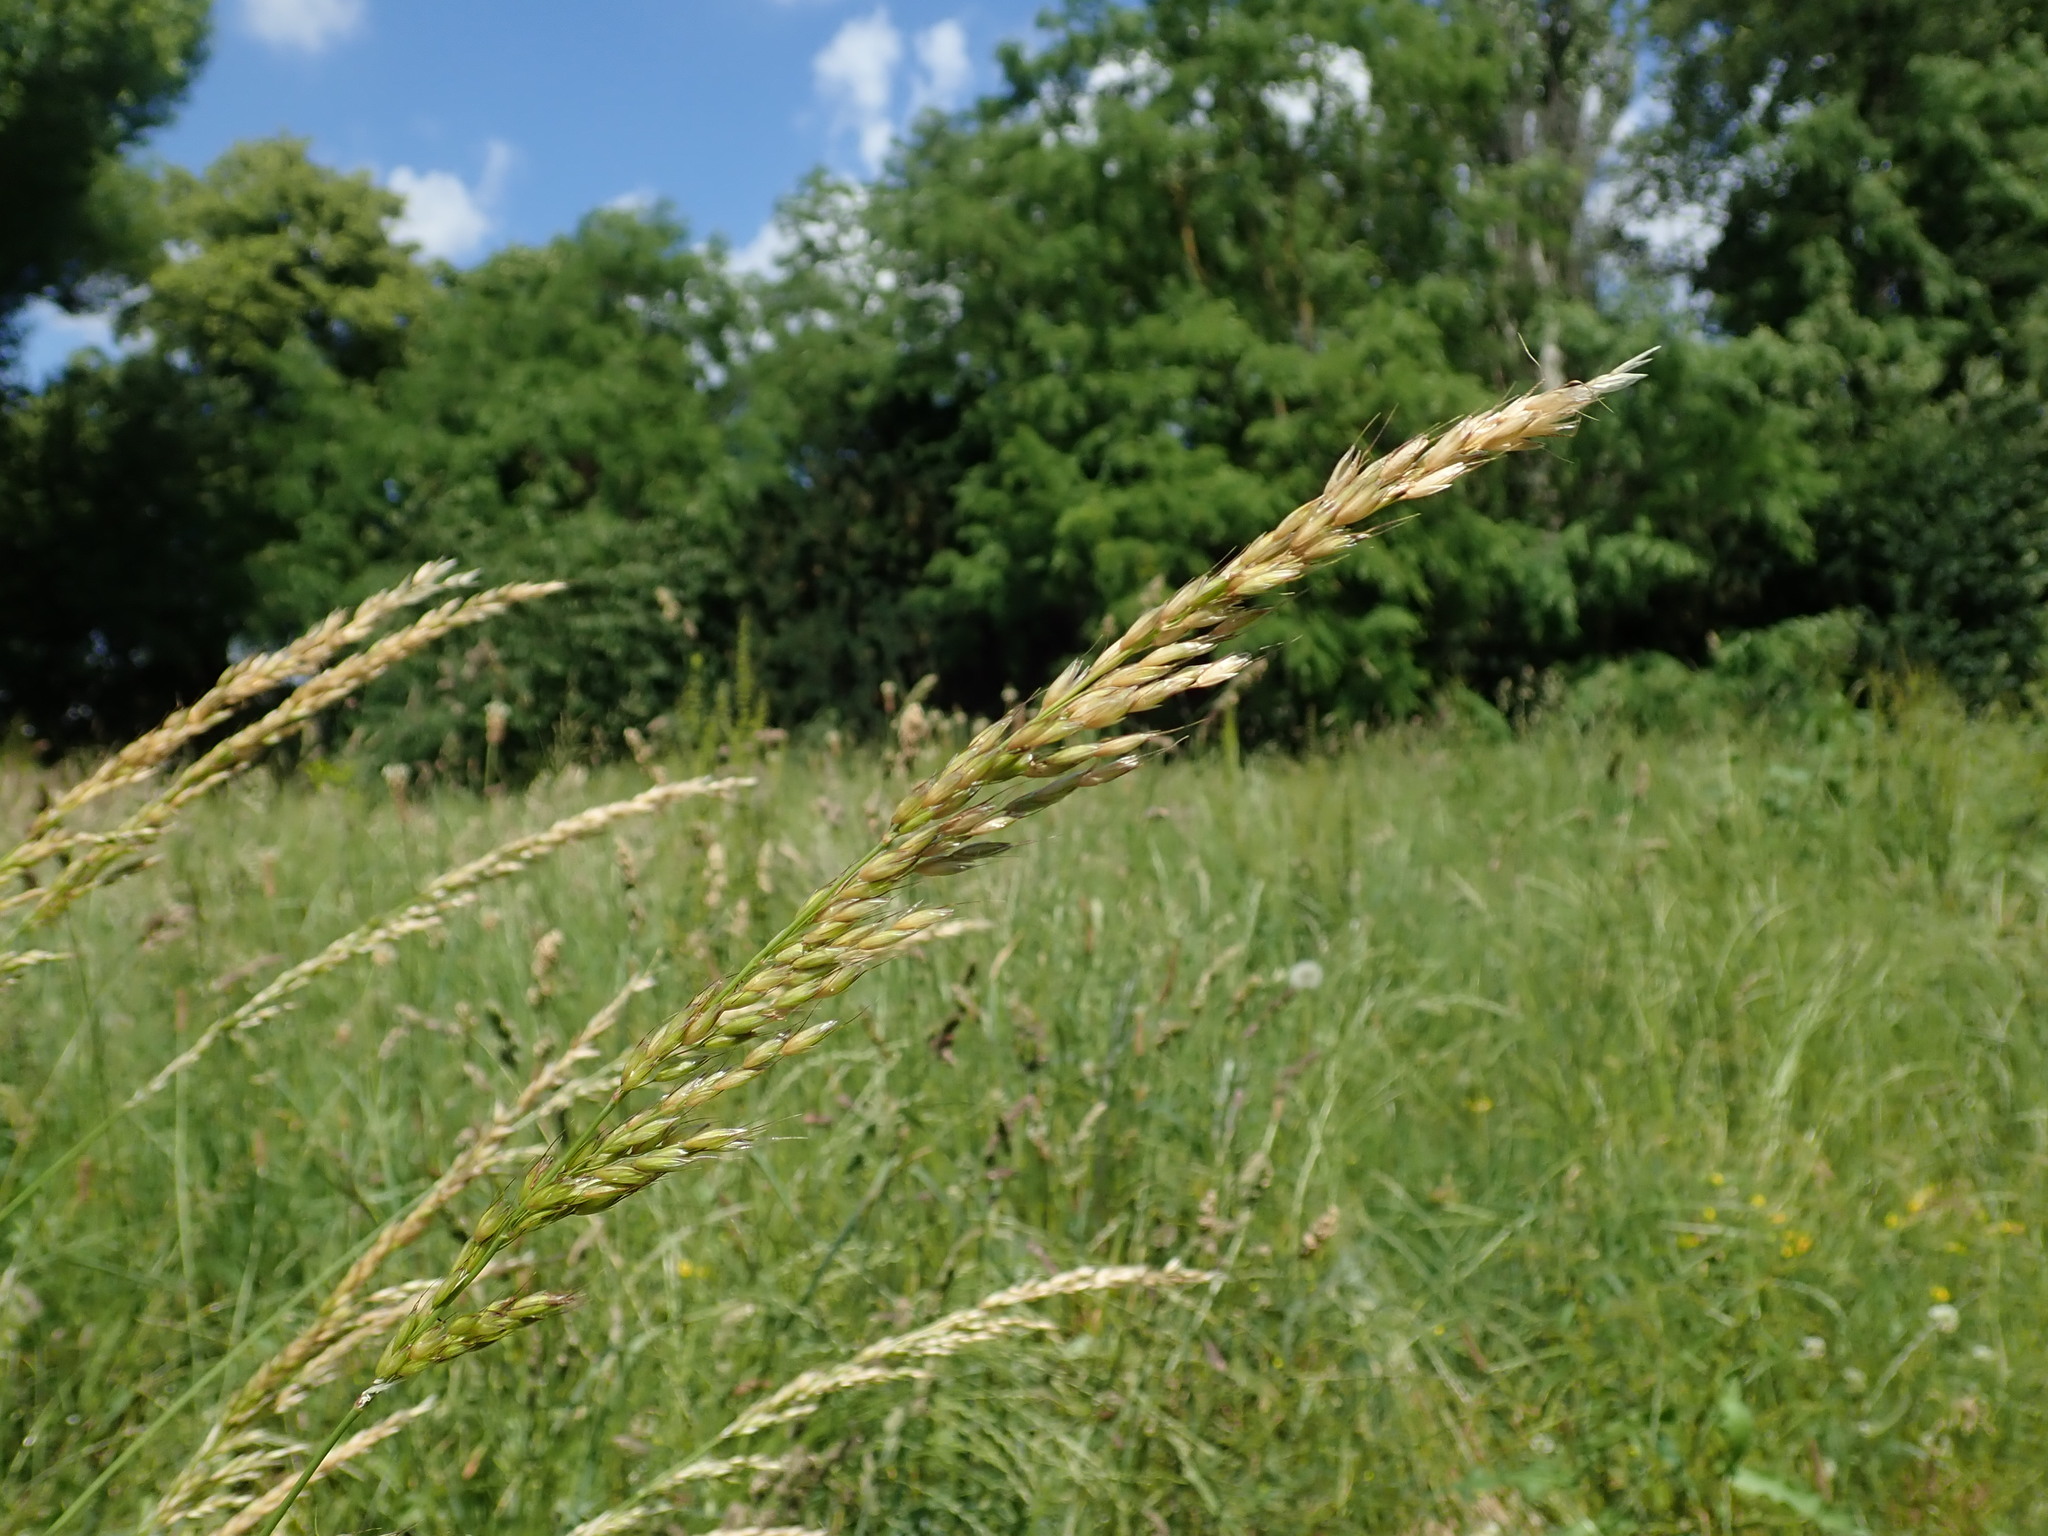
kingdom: Plantae
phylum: Tracheophyta
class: Liliopsida
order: Poales
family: Poaceae
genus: Arrhenatherum
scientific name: Arrhenatherum elatius
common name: Tall oatgrass
